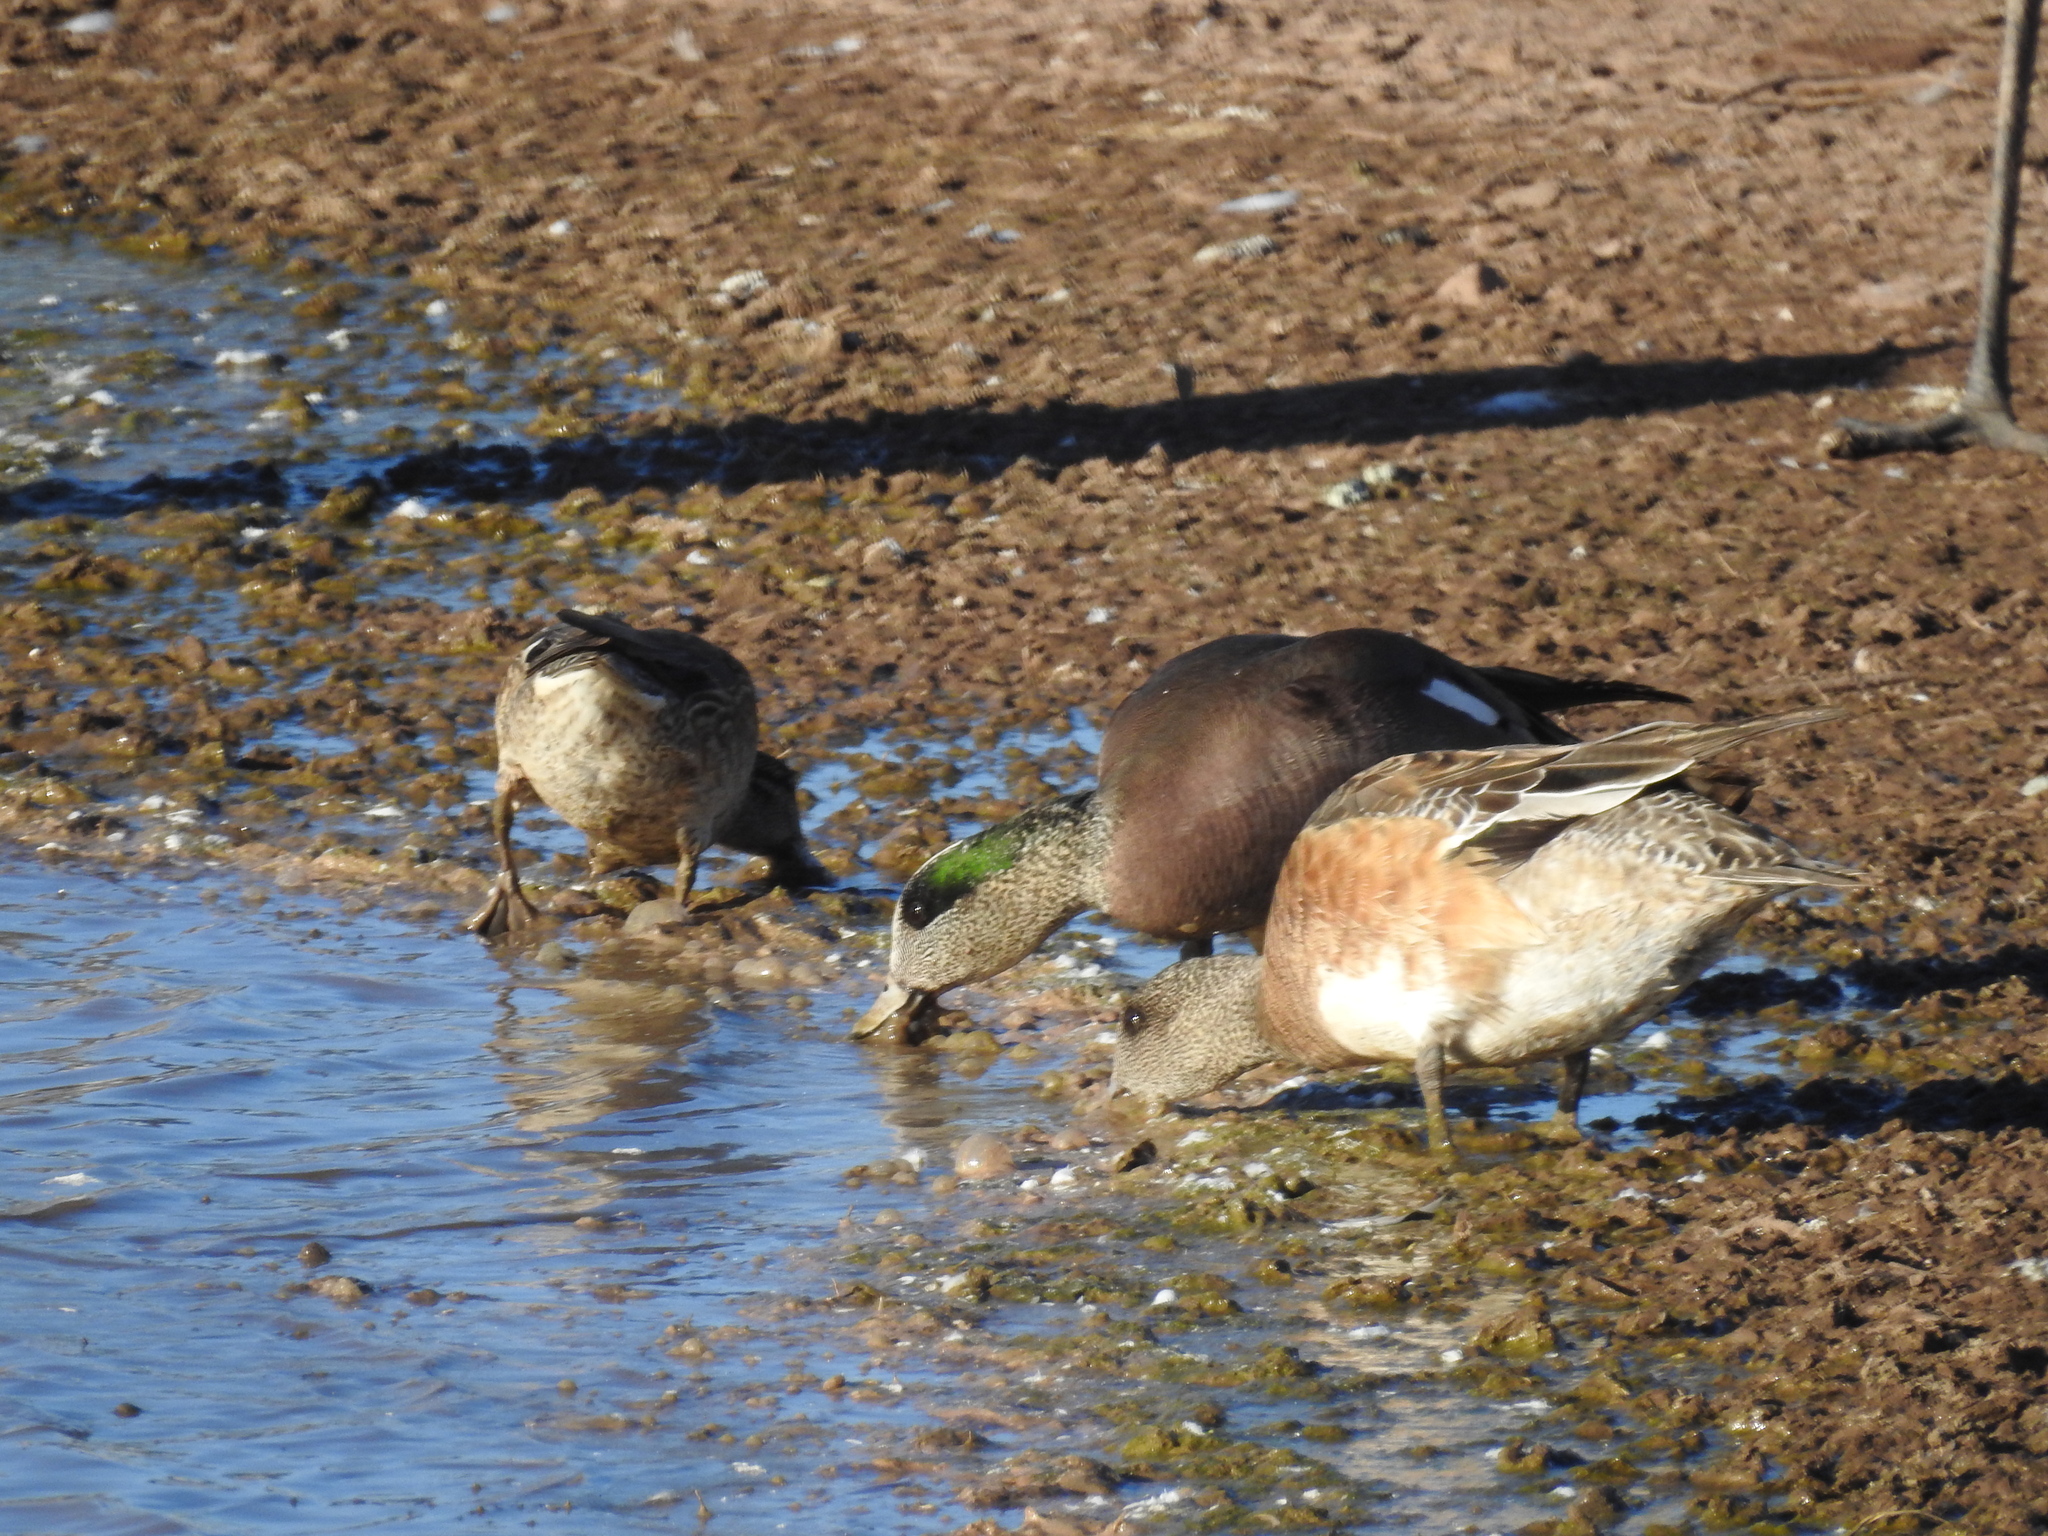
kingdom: Animalia
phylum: Chordata
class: Aves
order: Anseriformes
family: Anatidae
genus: Mareca
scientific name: Mareca americana
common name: American wigeon
